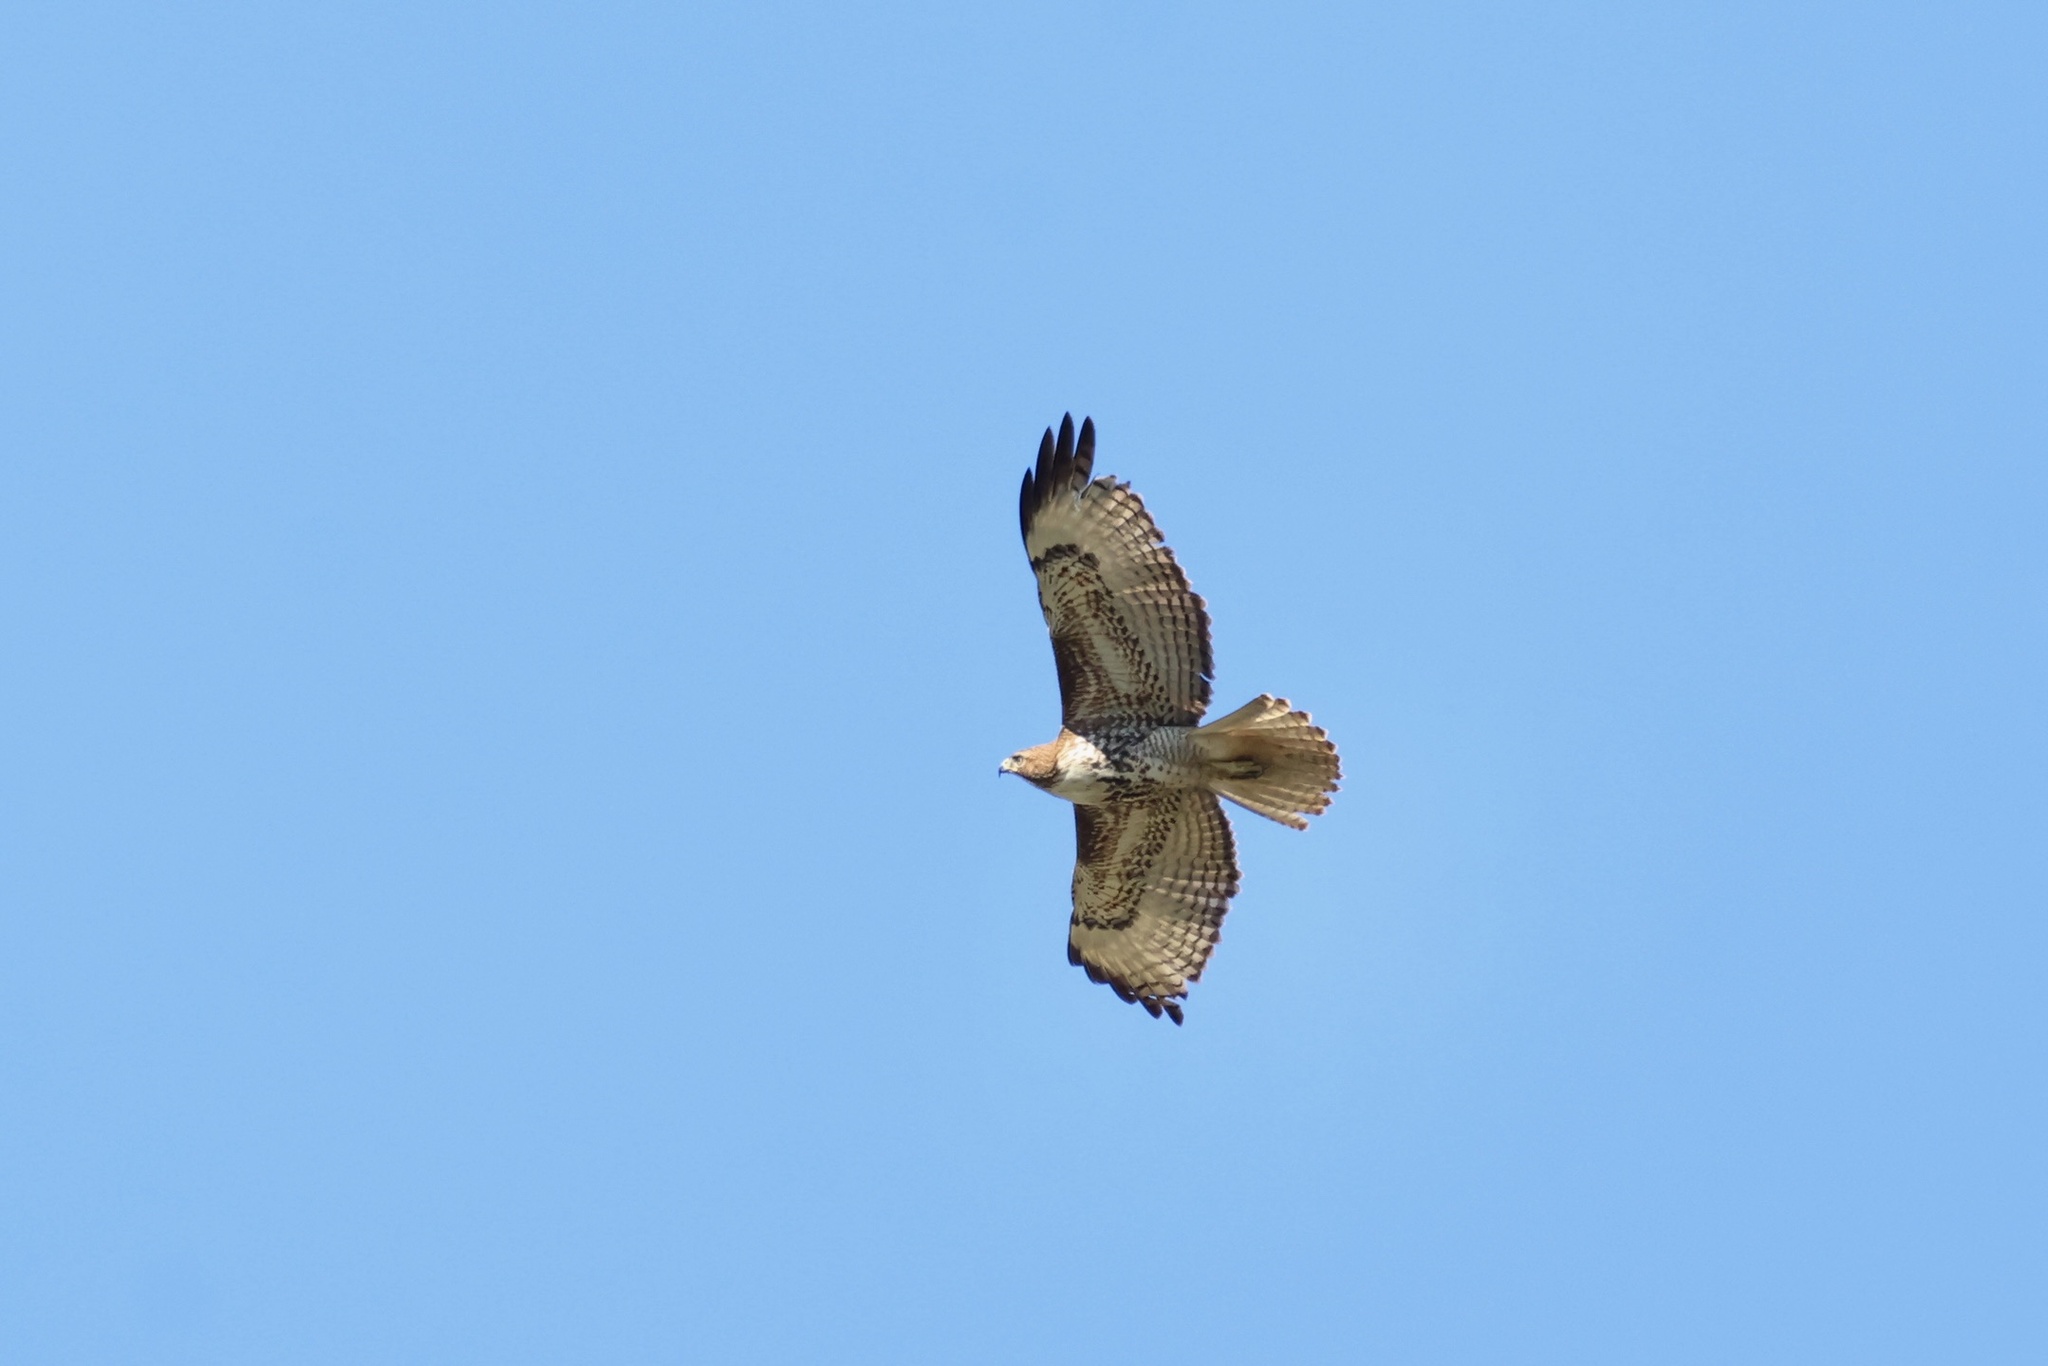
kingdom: Animalia
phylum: Chordata
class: Aves
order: Accipitriformes
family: Accipitridae
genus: Buteo
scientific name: Buteo jamaicensis
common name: Red-tailed hawk
